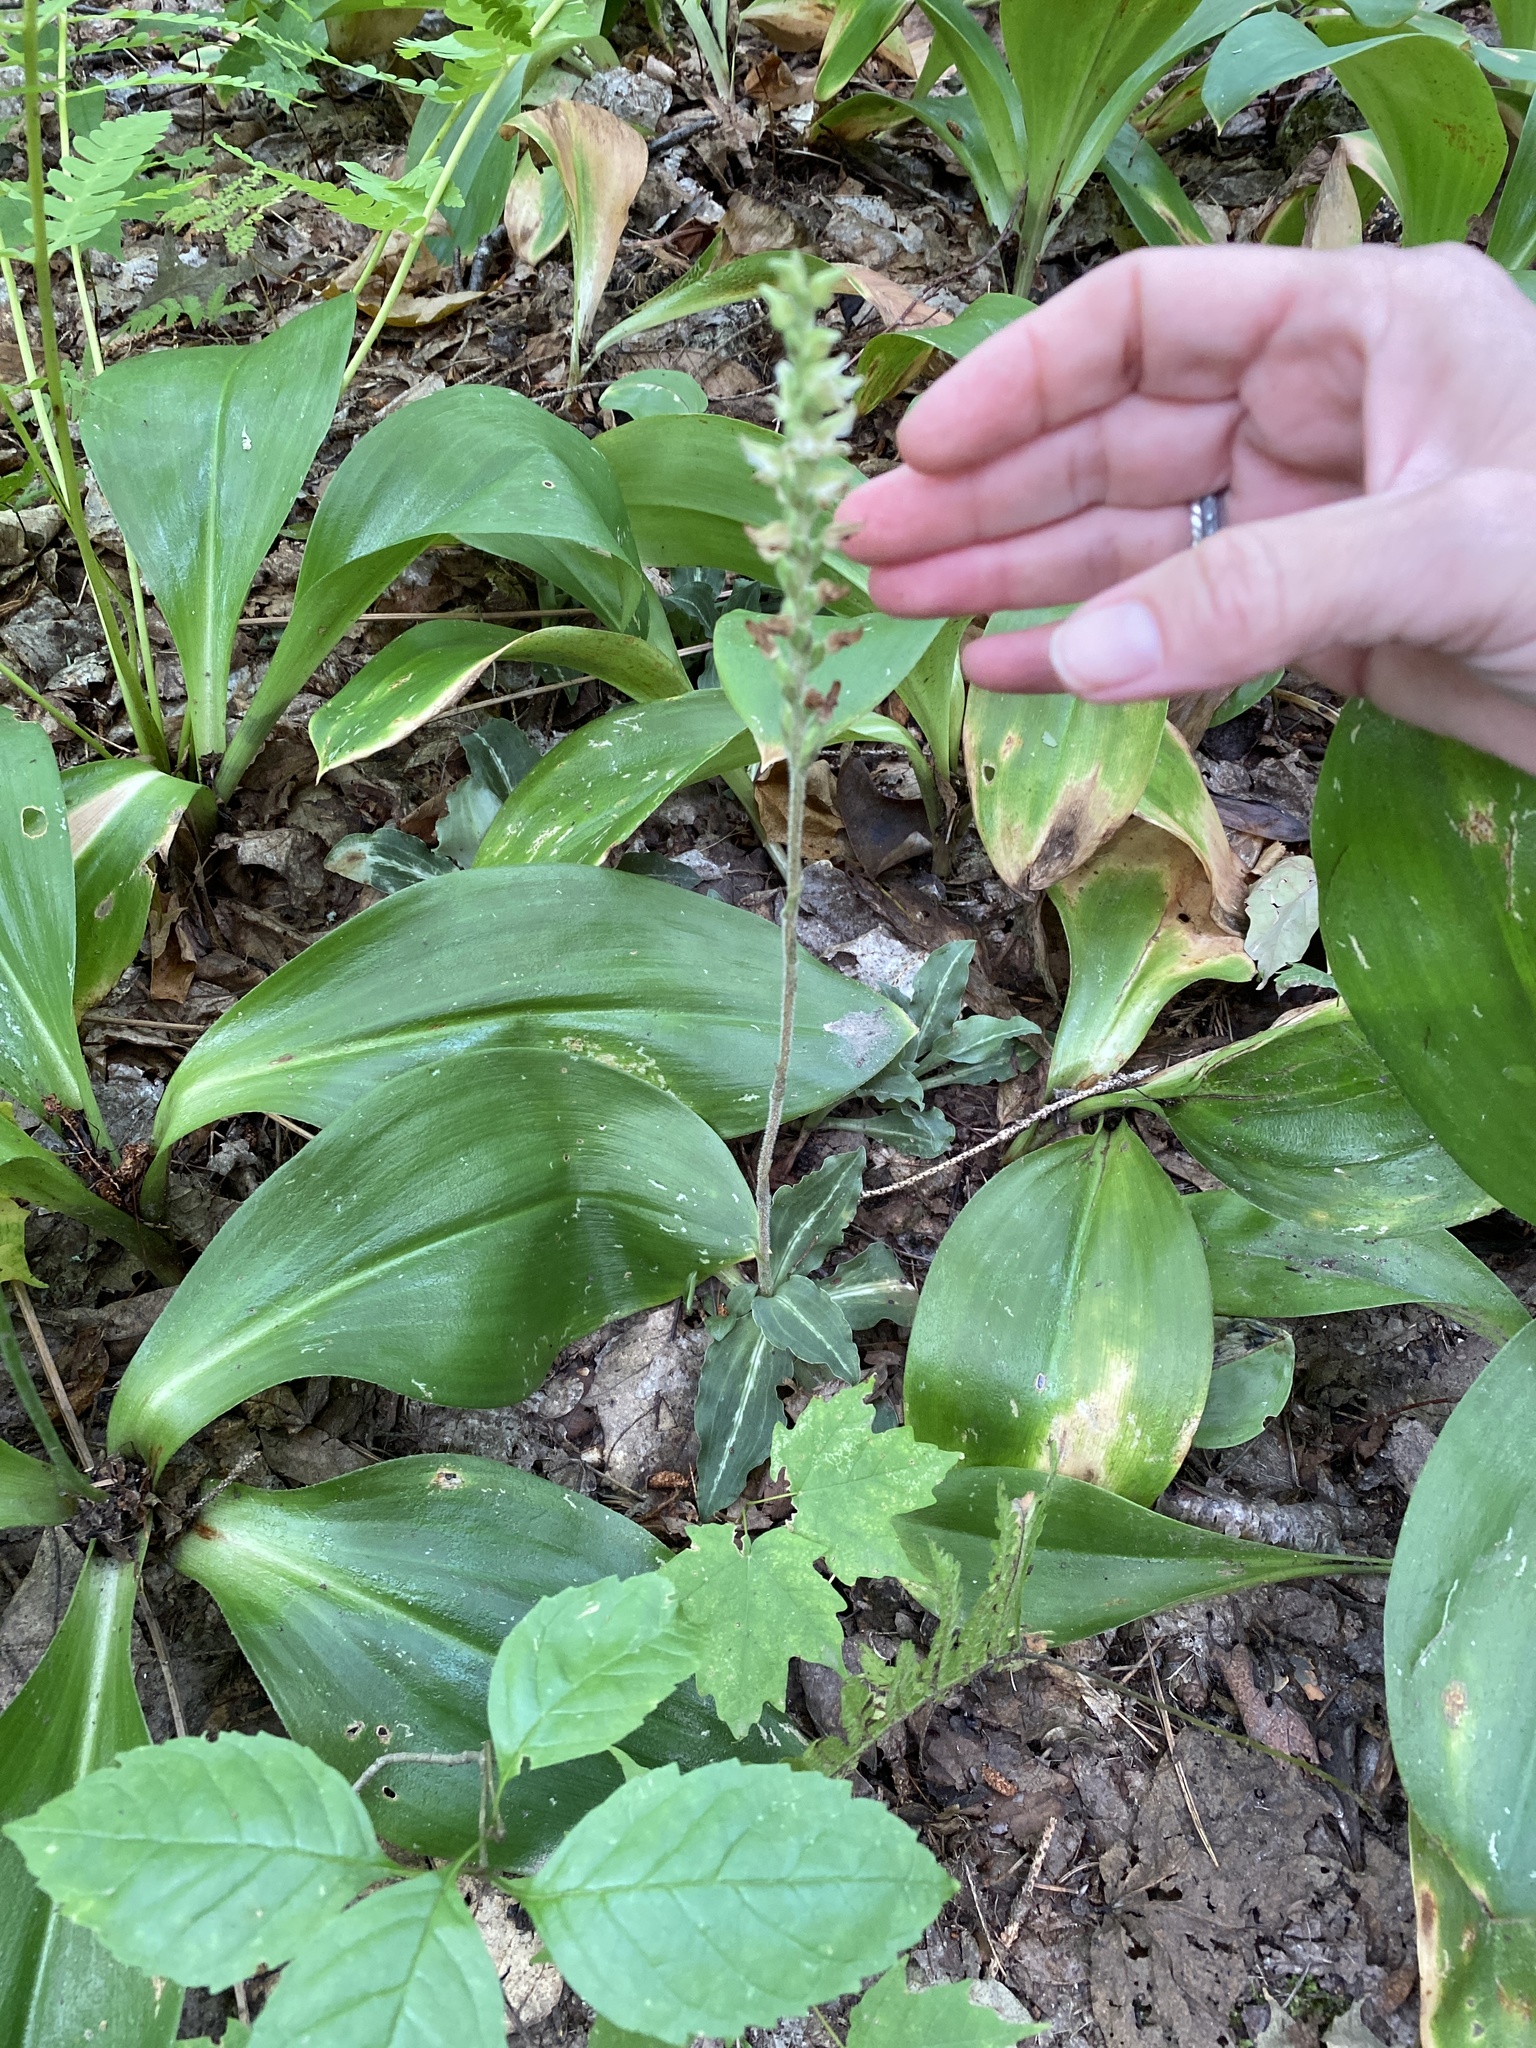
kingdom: Plantae
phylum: Tracheophyta
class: Liliopsida
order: Asparagales
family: Orchidaceae
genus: Goodyera
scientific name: Goodyera oblongifolia
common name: Giant rattlesnake-plantain
